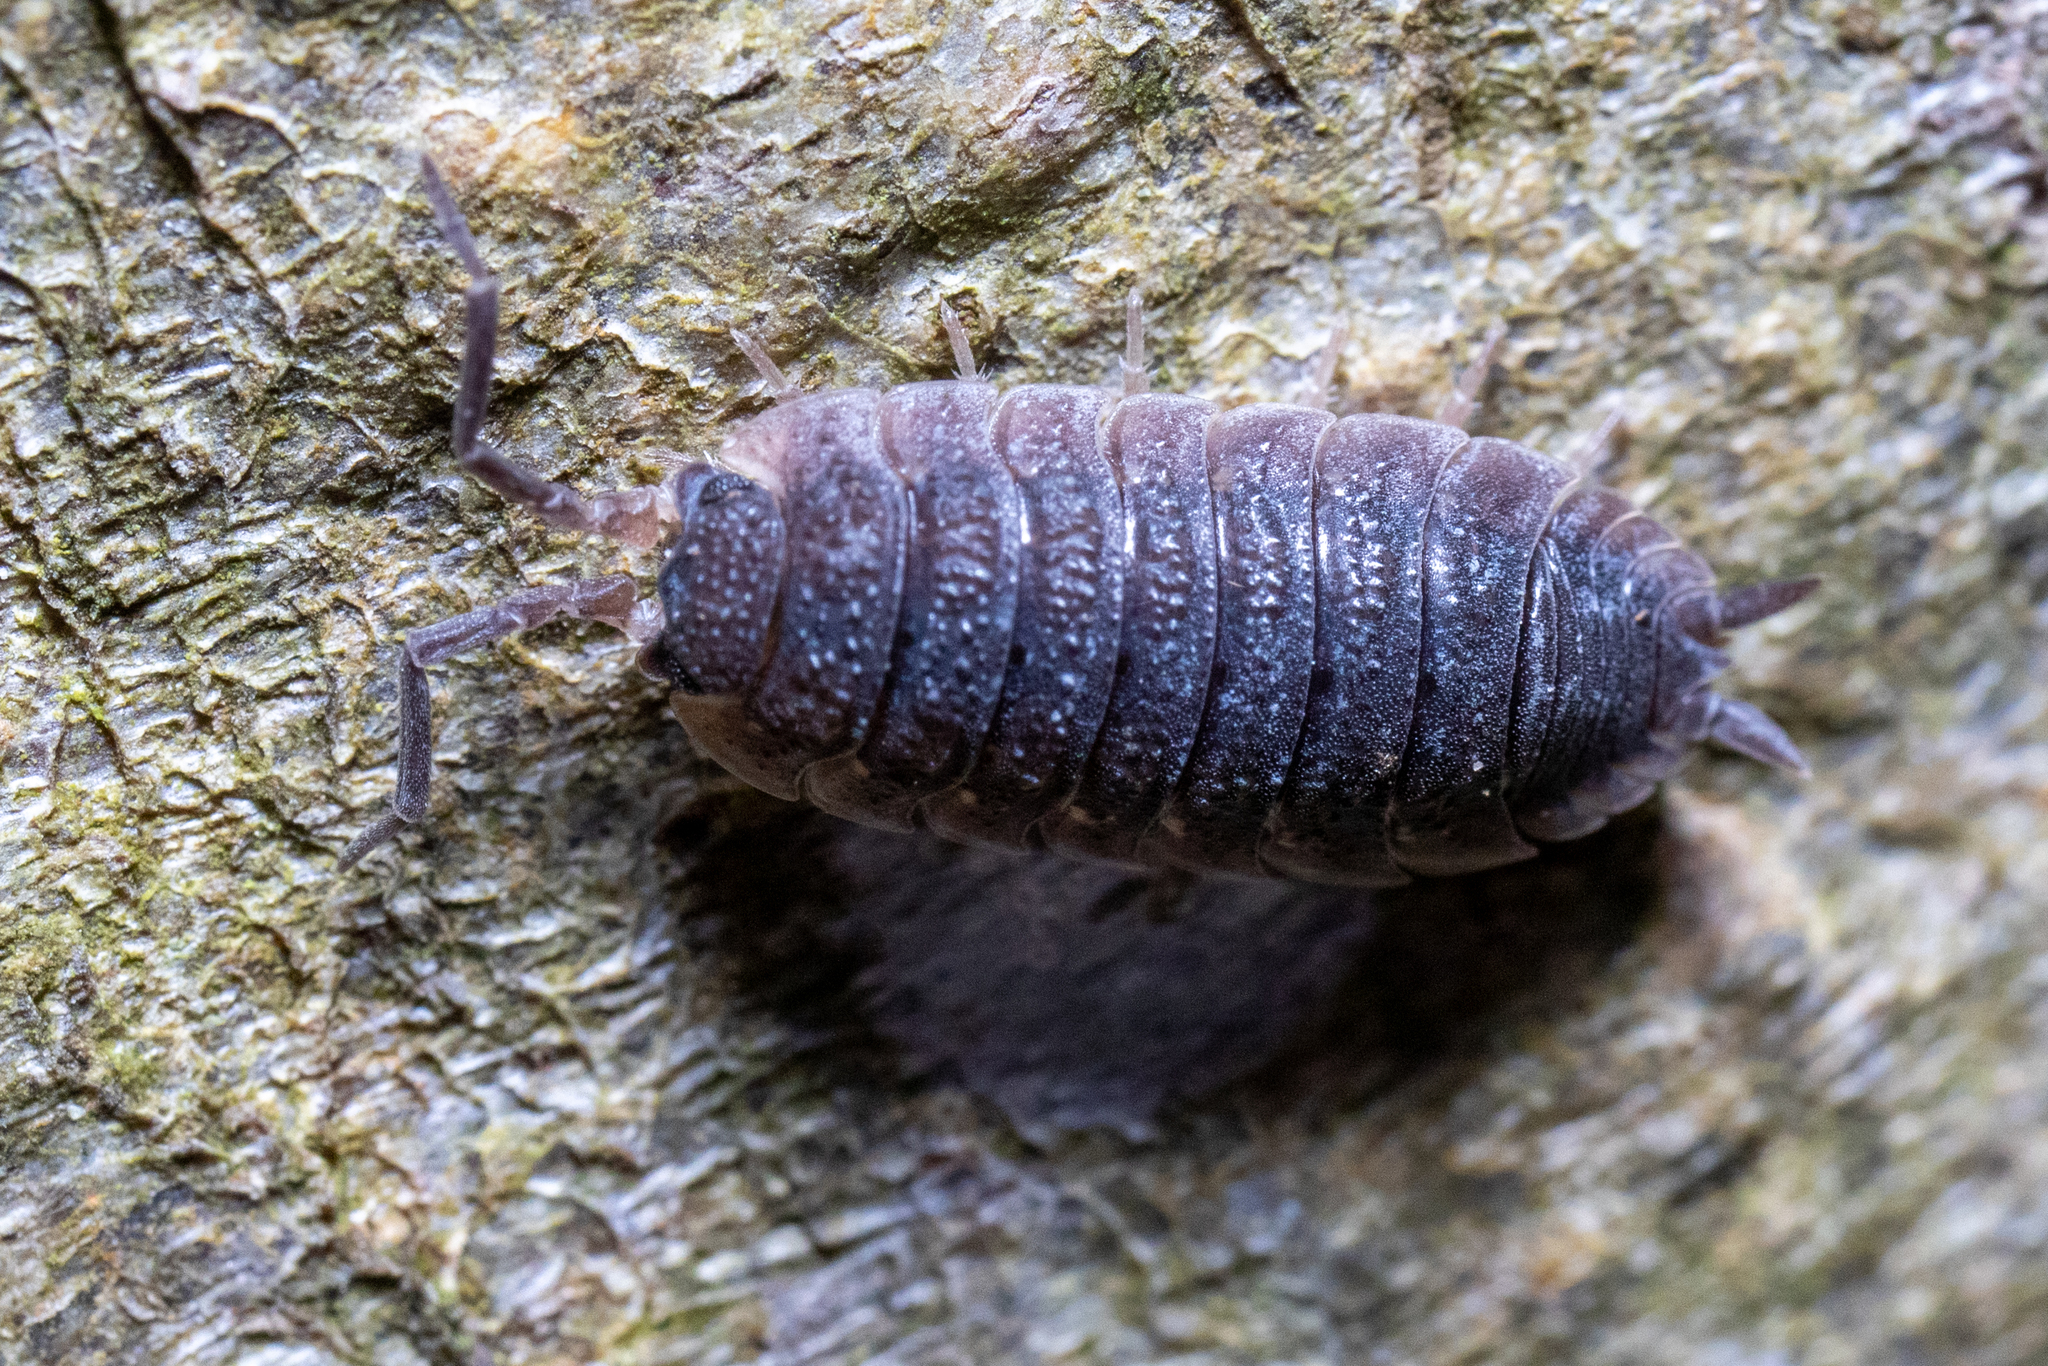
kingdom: Animalia
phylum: Arthropoda
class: Malacostraca
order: Isopoda
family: Porcellionidae
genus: Porcellio
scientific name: Porcellio scaber
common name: Common rough woodlouse
